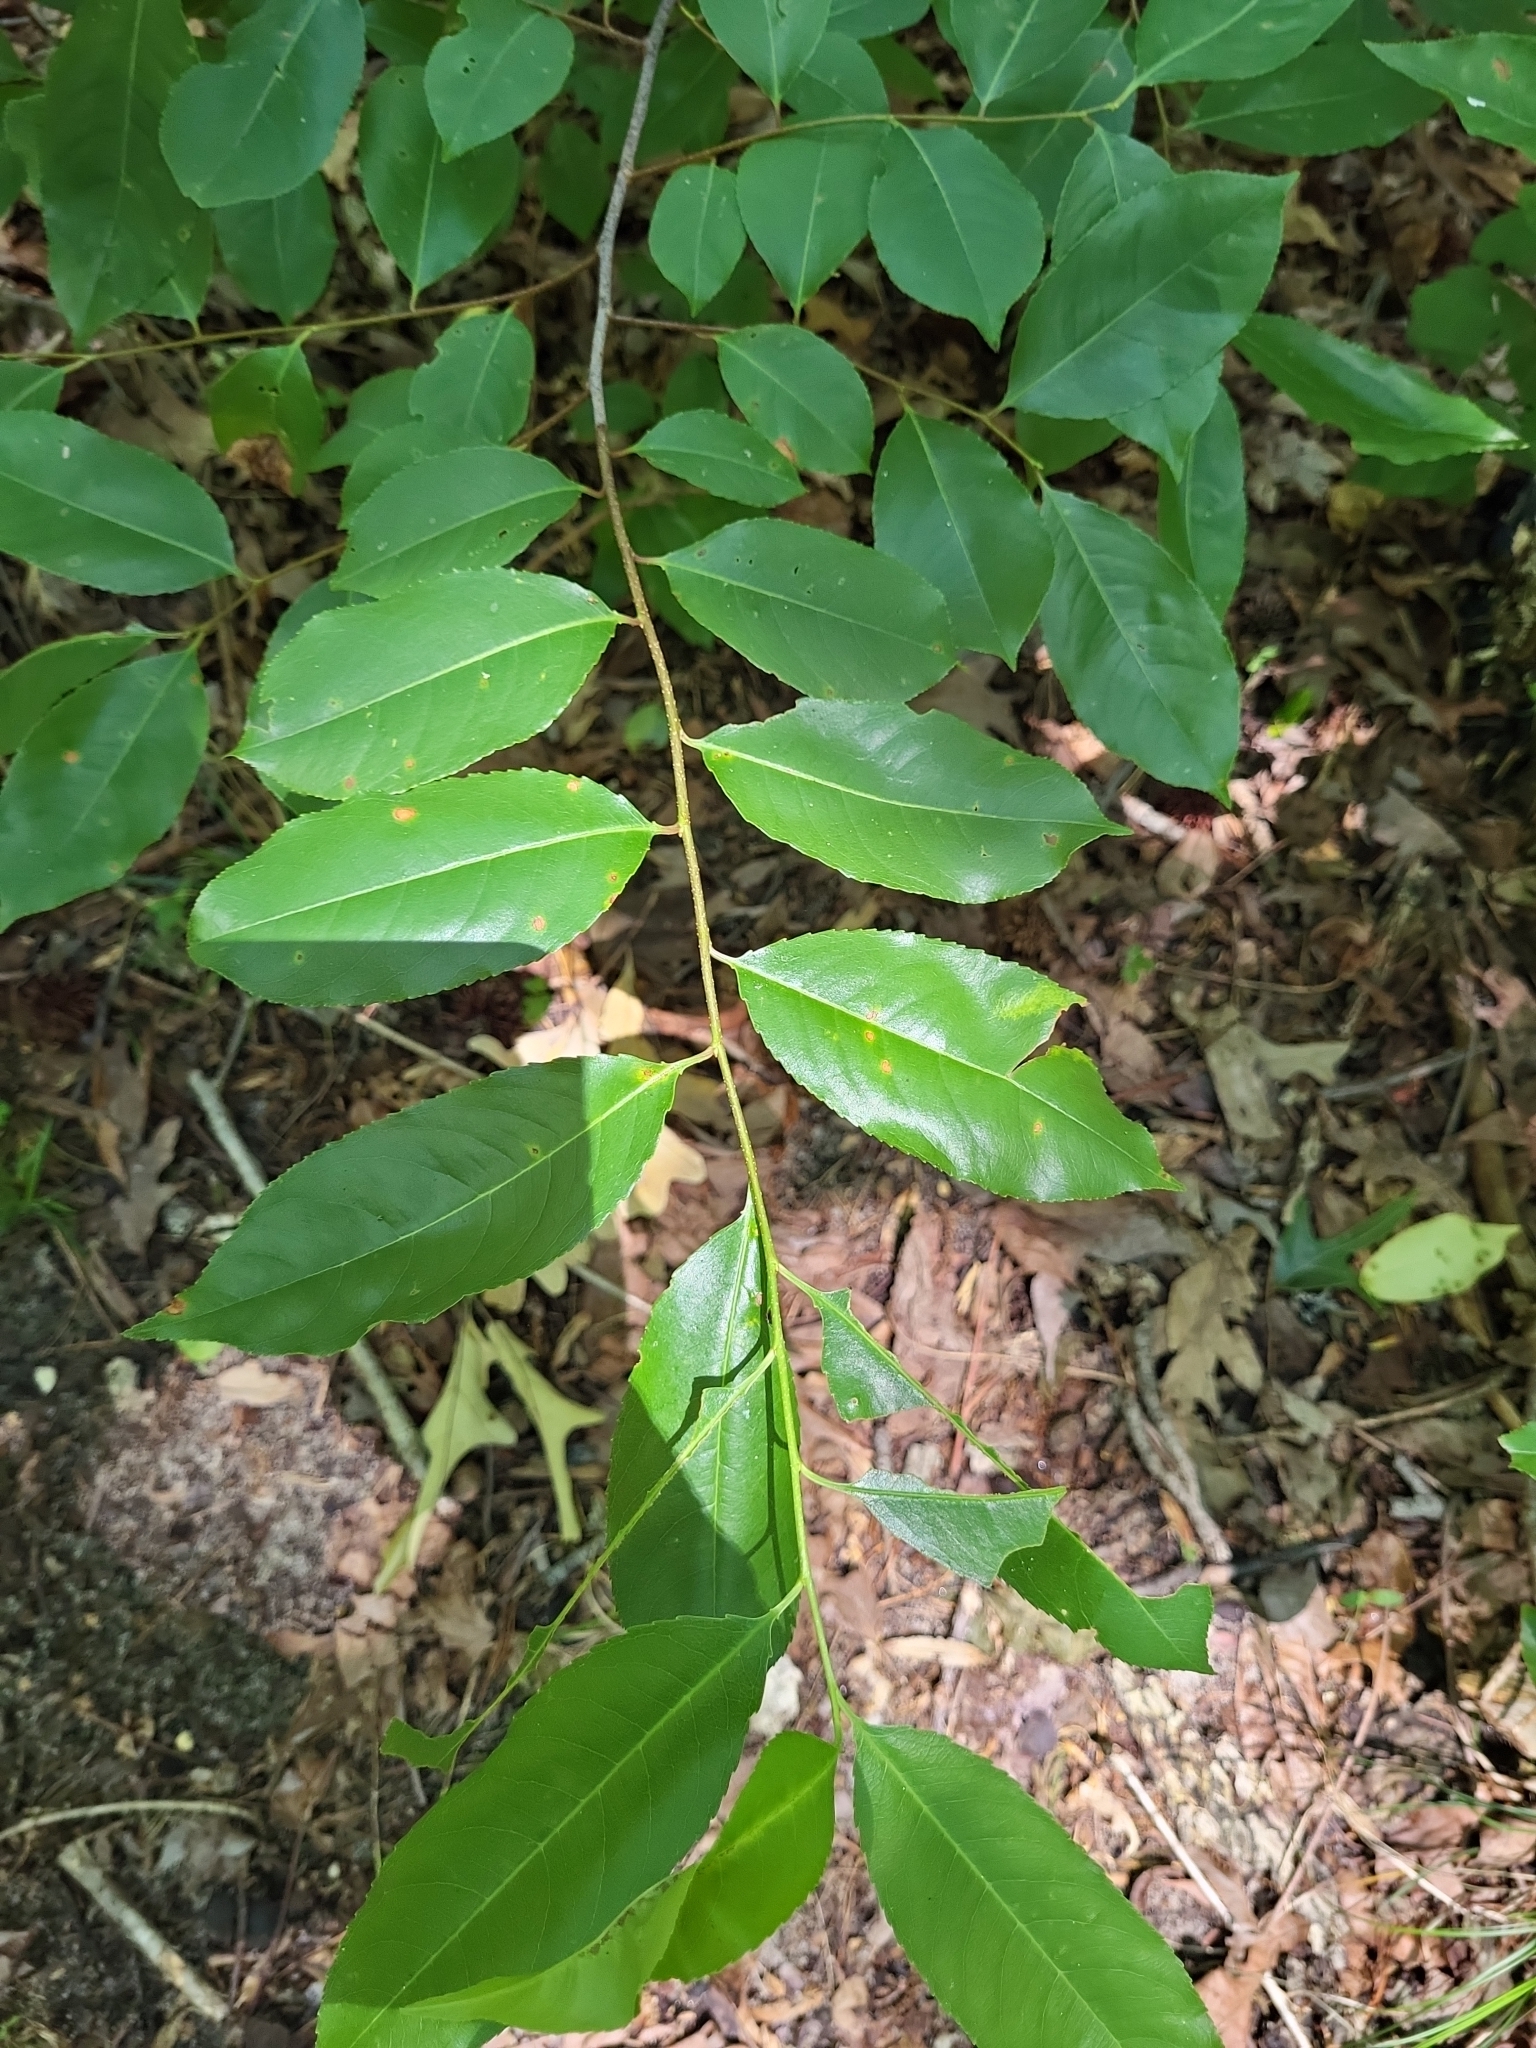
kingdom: Animalia
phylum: Arthropoda
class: Arachnida
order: Trombidiformes
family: Eriophyidae
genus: Eriophyes
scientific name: Eriophyes
